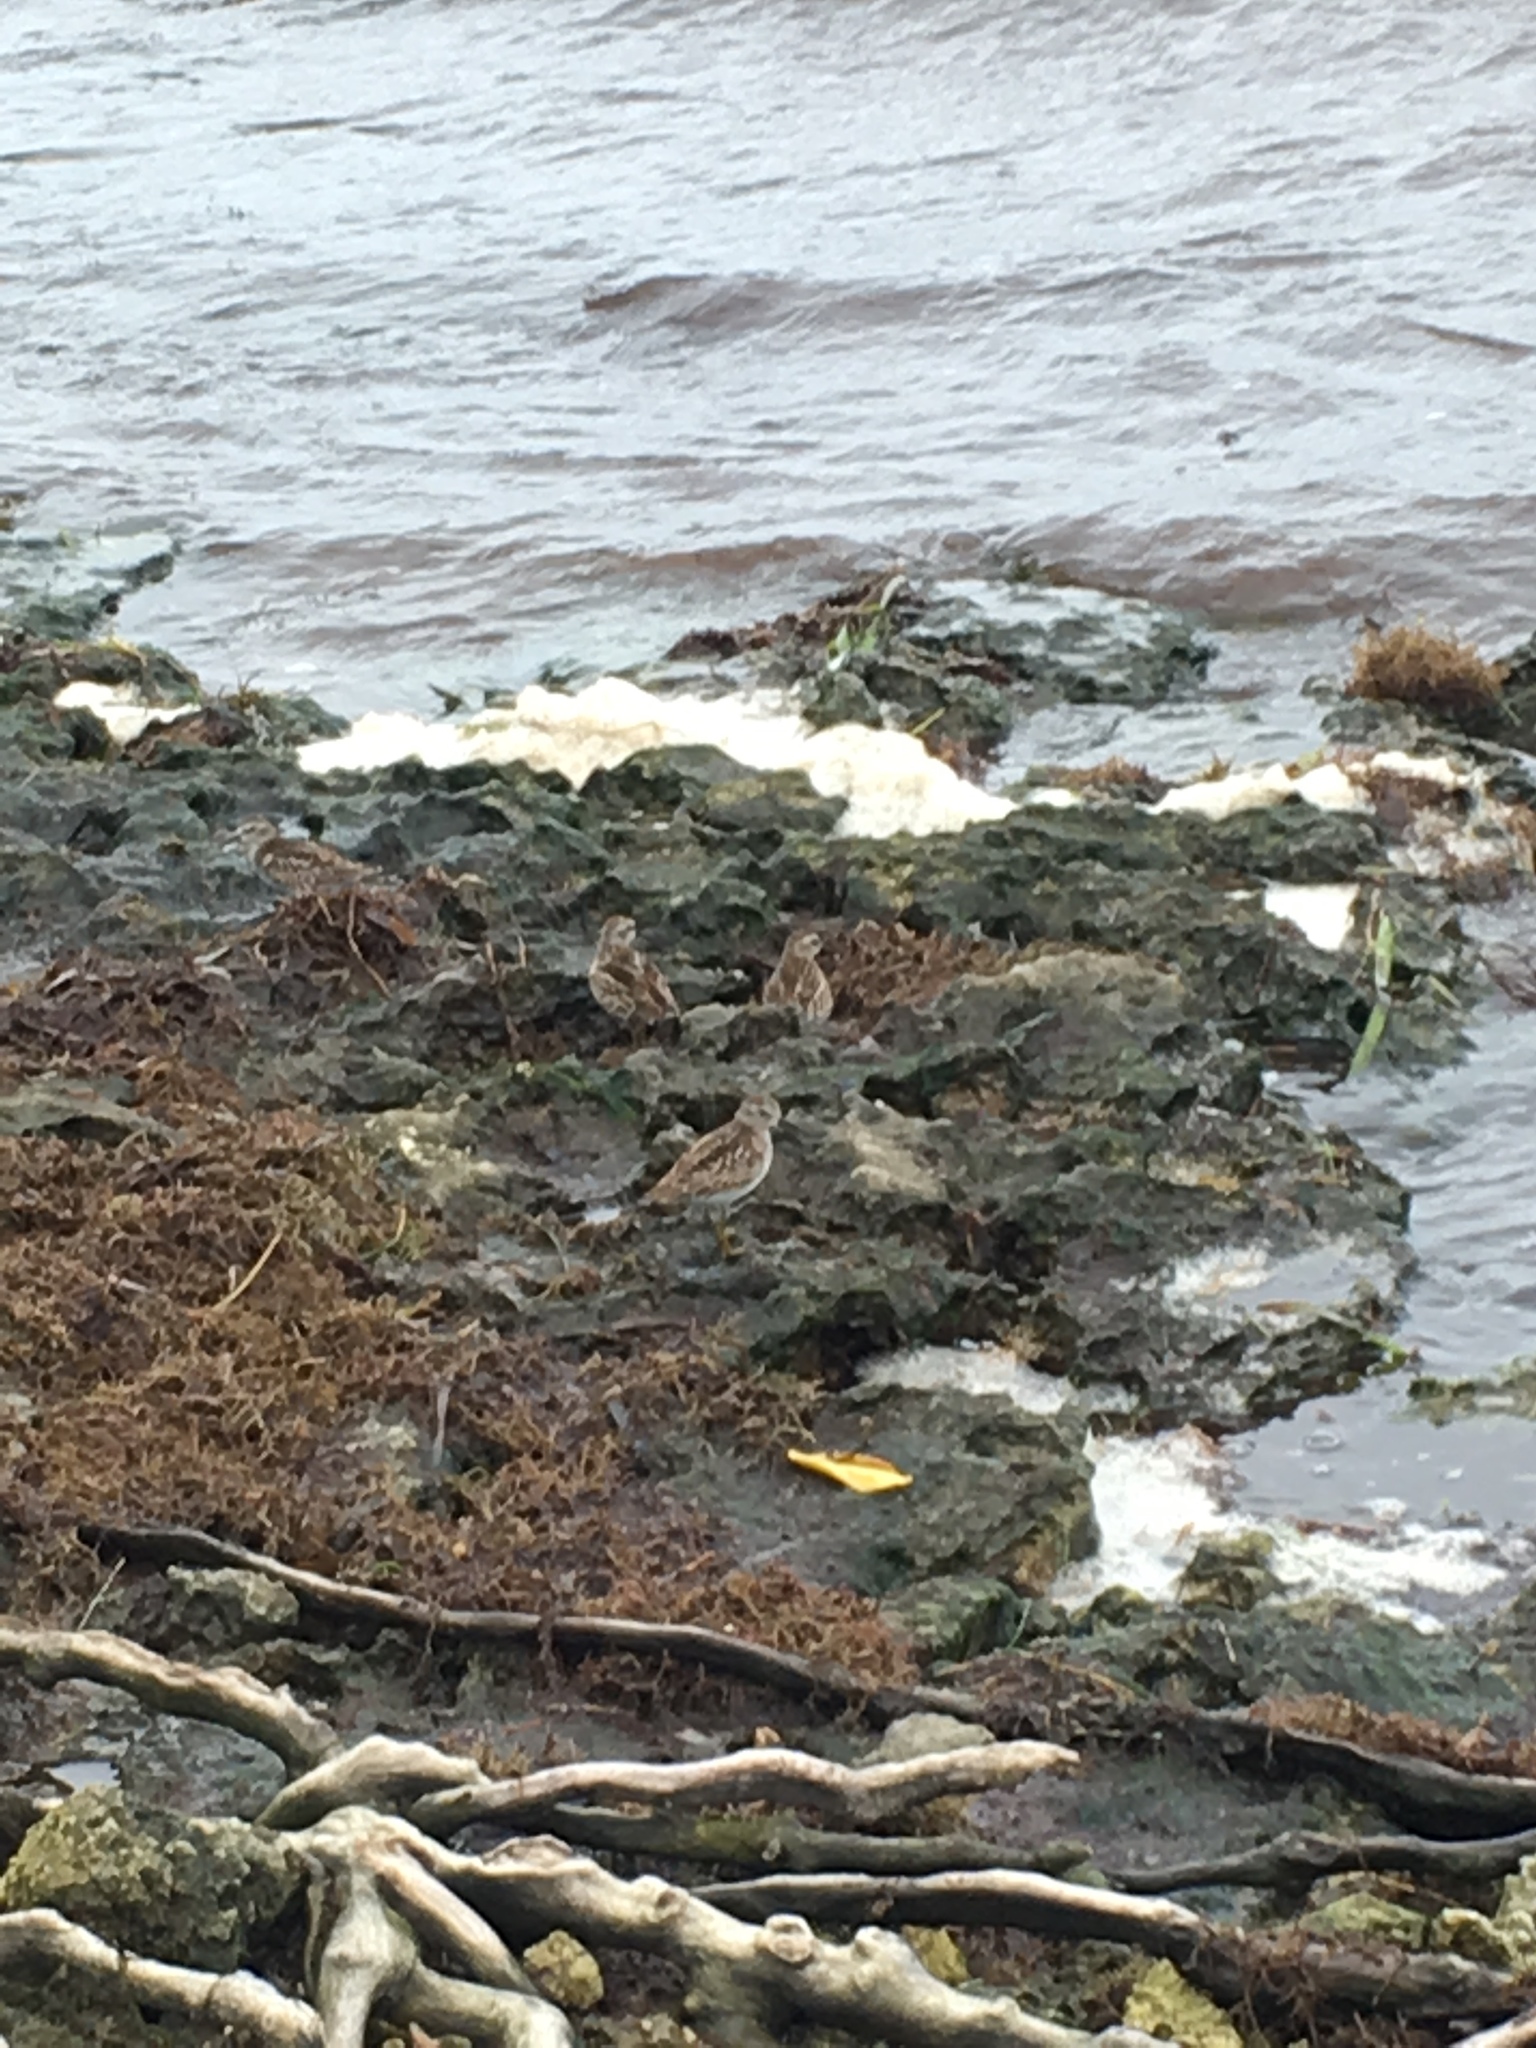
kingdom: Animalia
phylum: Chordata
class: Aves
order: Charadriiformes
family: Scolopacidae
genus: Calidris
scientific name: Calidris minutilla
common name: Least sandpiper
